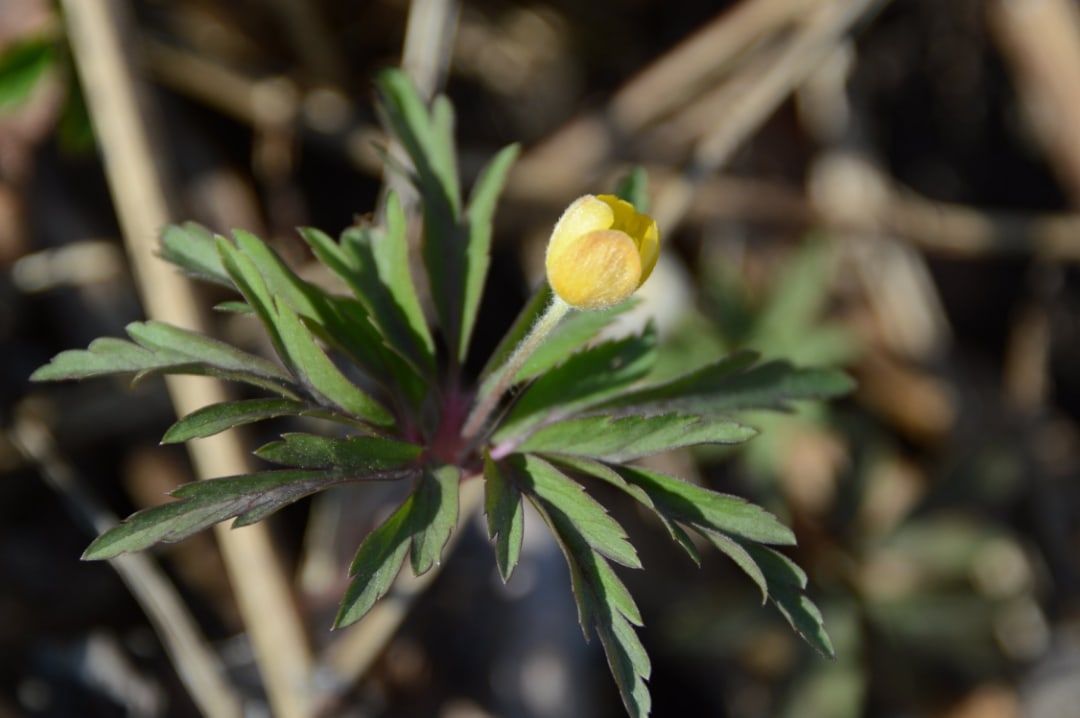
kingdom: Plantae
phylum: Tracheophyta
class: Magnoliopsida
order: Ranunculales
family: Ranunculaceae
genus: Anemone
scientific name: Anemone ranunculoides
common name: Yellow anemone
